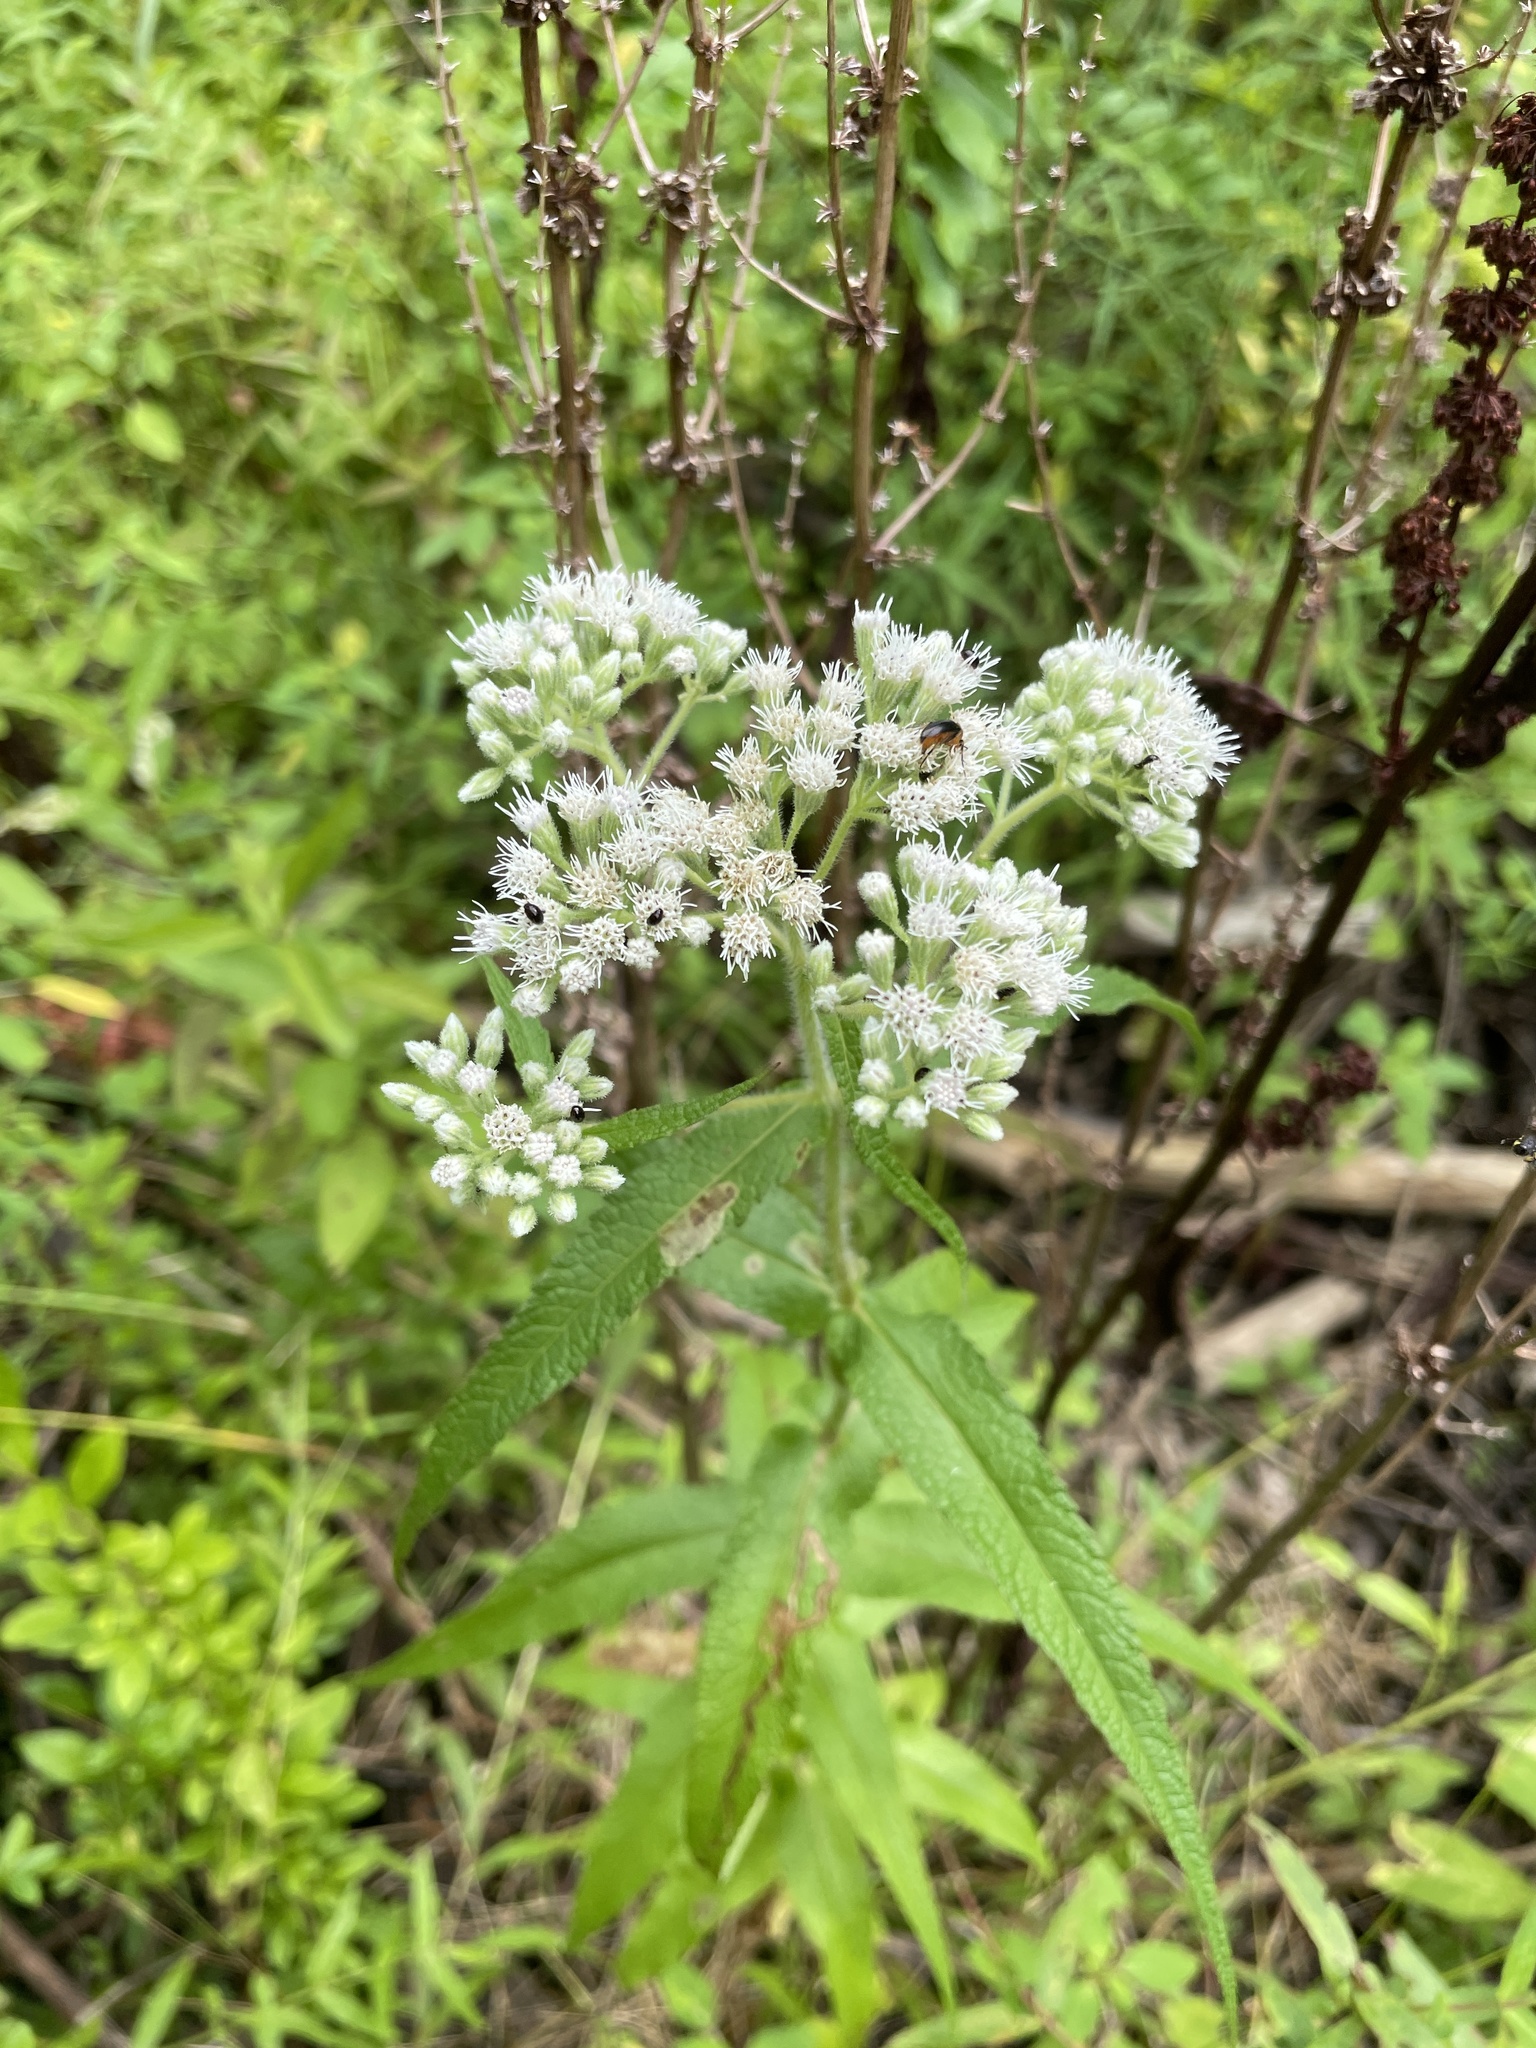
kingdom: Plantae
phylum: Tracheophyta
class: Magnoliopsida
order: Asterales
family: Asteraceae
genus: Eupatorium
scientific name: Eupatorium perfoliatum
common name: Boneset
